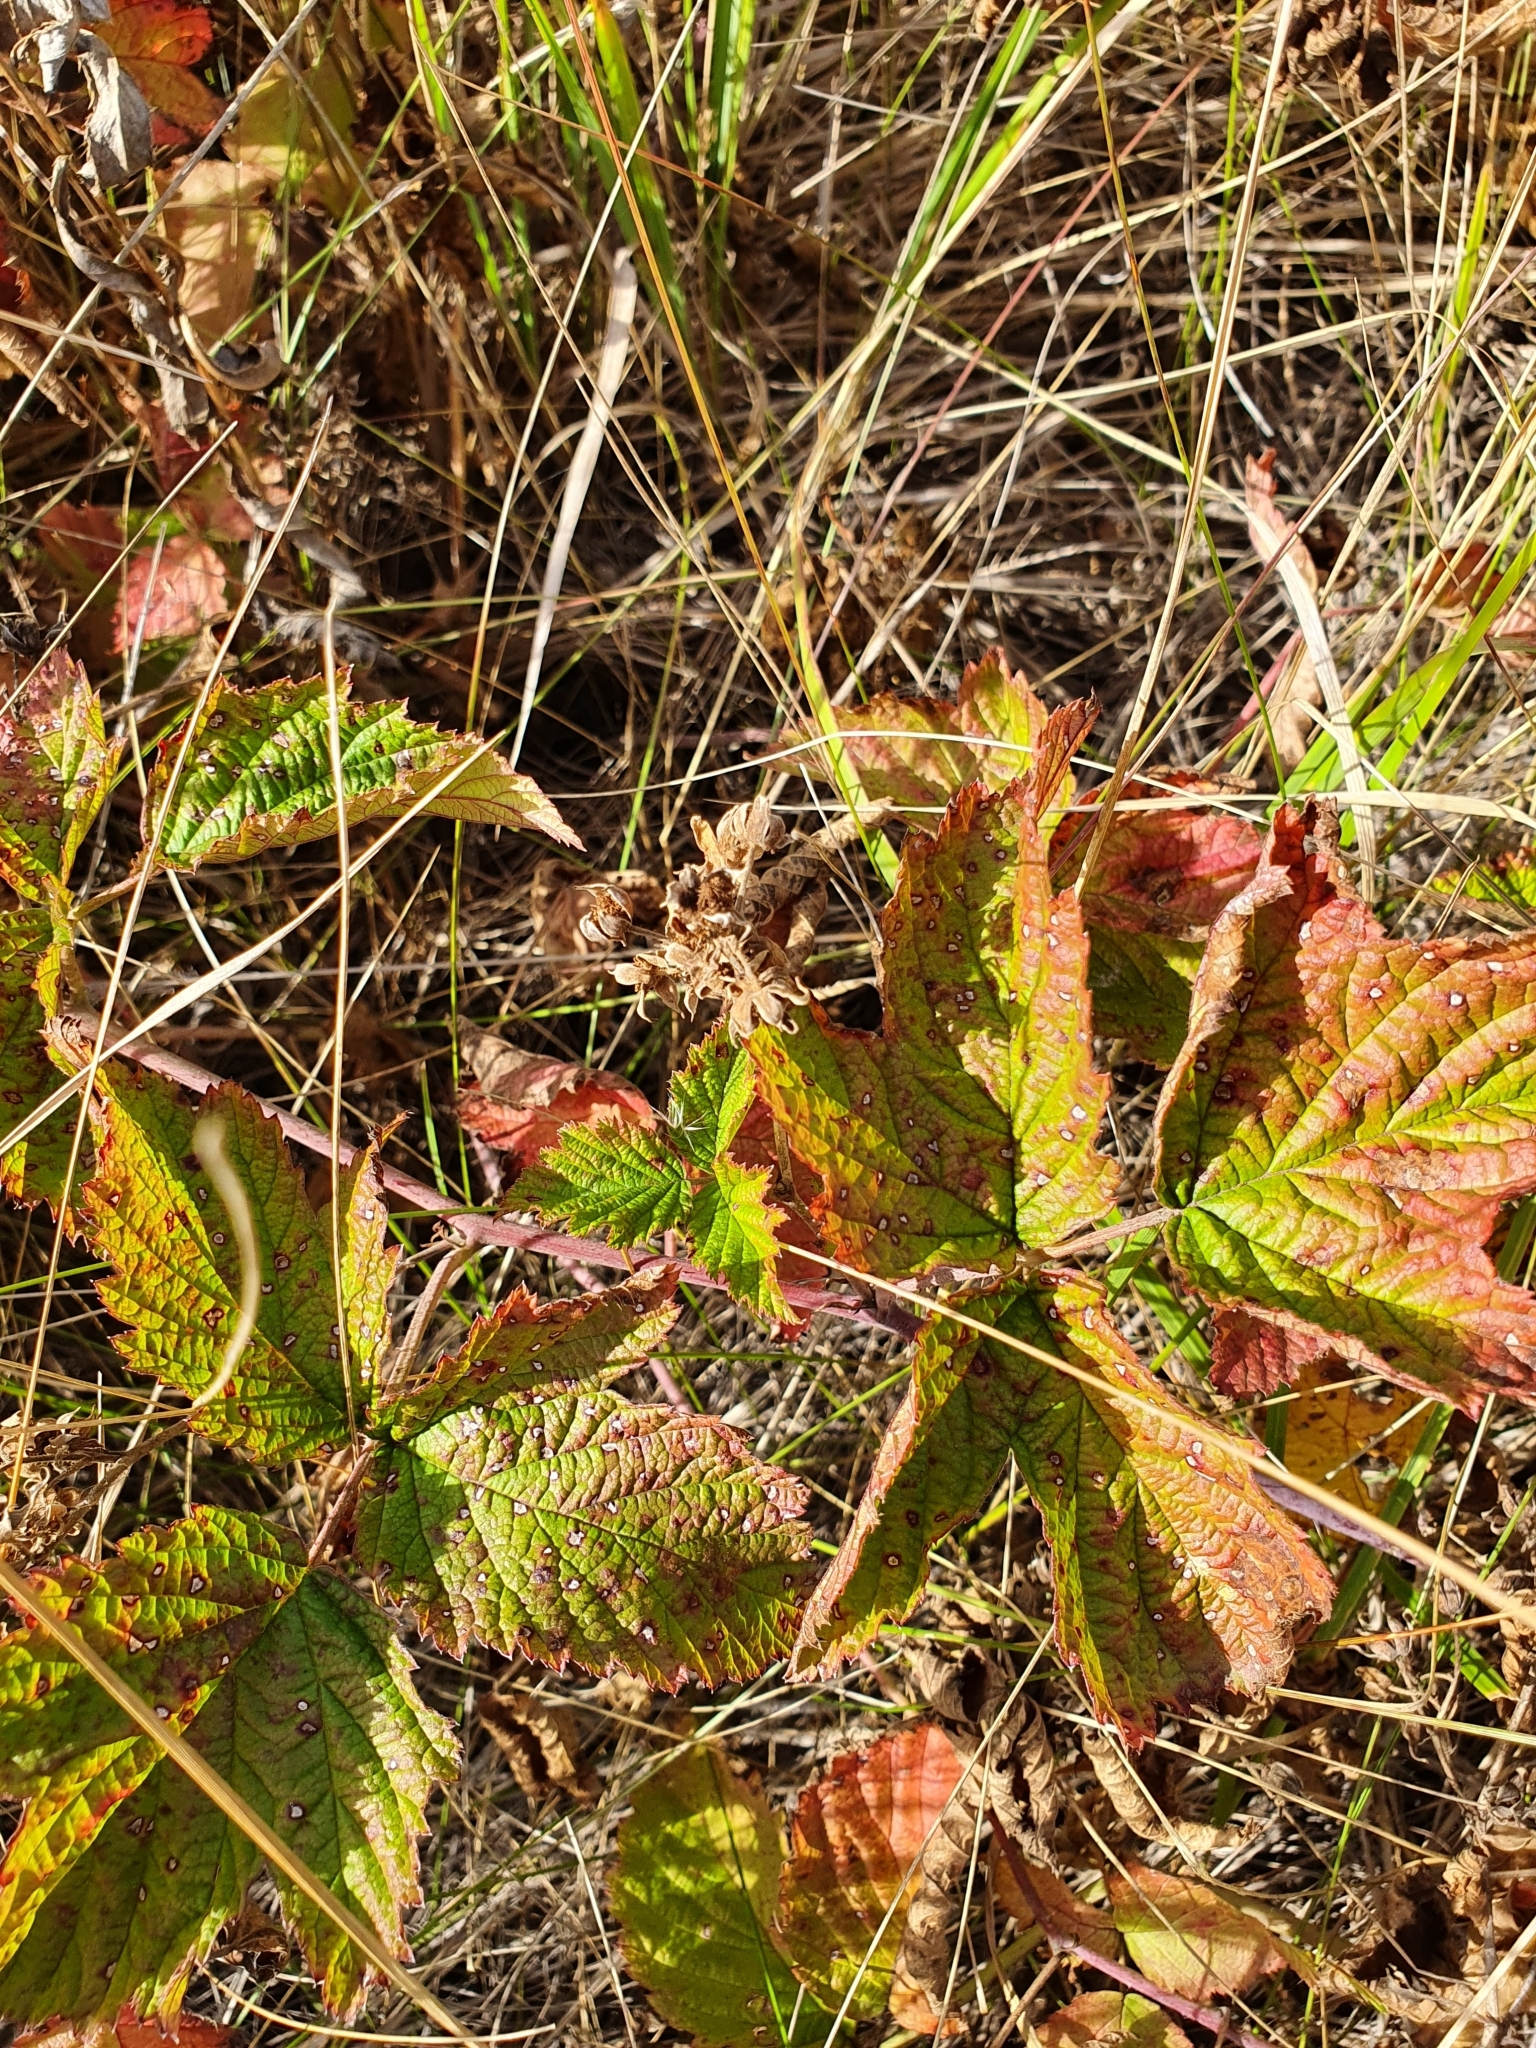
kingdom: Plantae
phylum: Tracheophyta
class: Magnoliopsida
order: Rosales
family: Rosaceae
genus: Rubus
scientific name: Rubus caesius
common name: Dewberry
